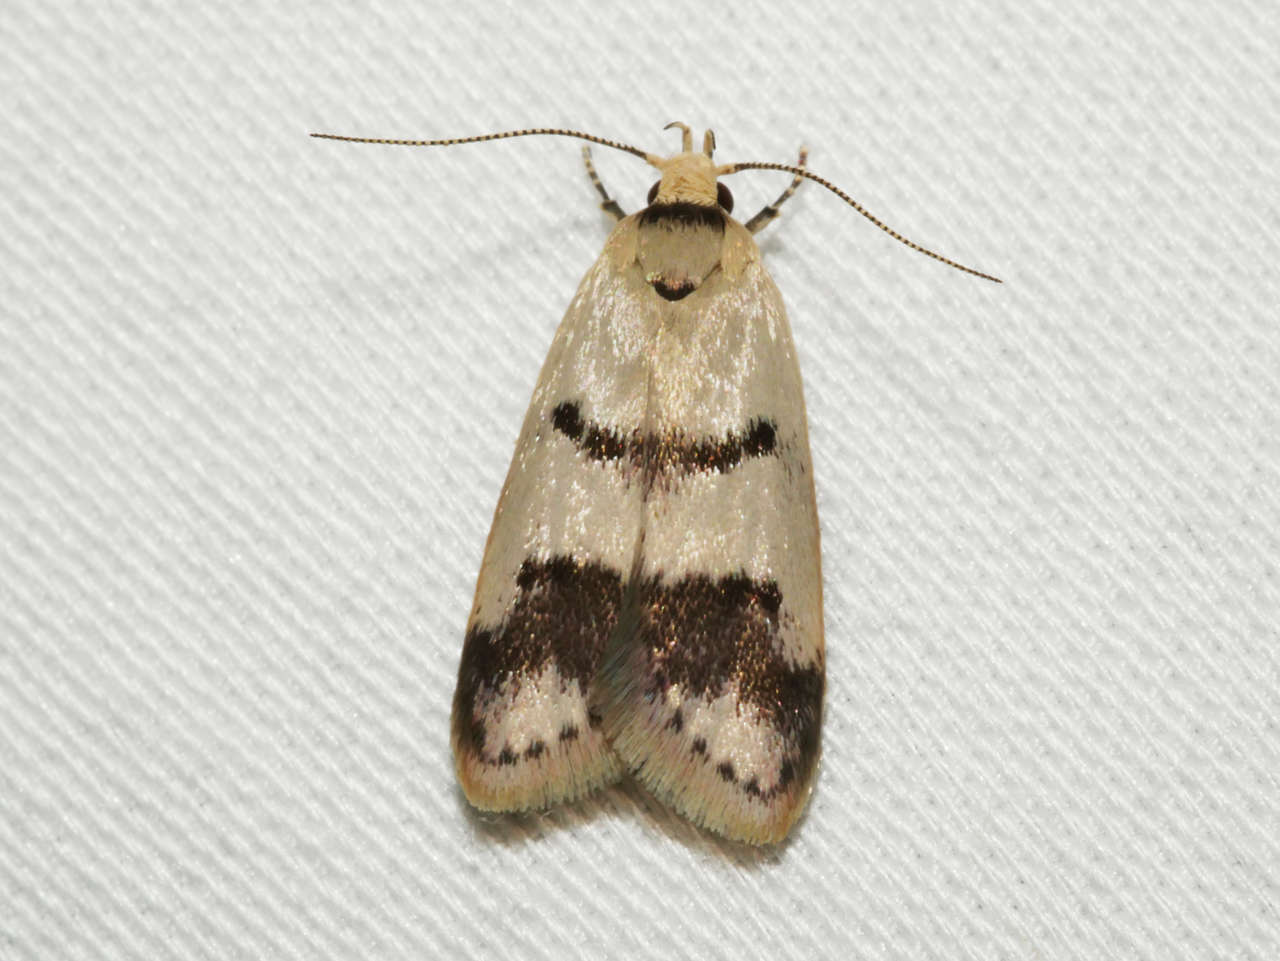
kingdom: Animalia
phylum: Arthropoda
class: Insecta
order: Lepidoptera
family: Oecophoridae
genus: Compsotropha
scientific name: Compsotropha strophiella
